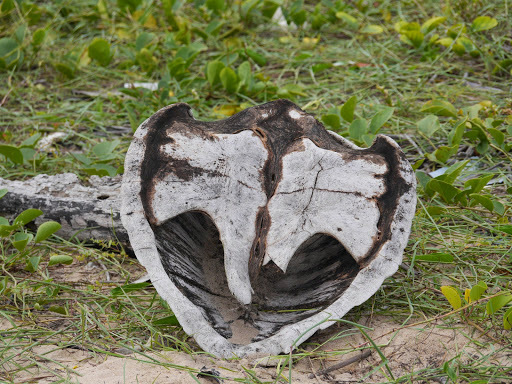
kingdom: Animalia
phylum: Chordata
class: Testudines
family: Cheloniidae
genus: Lepidochelys
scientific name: Lepidochelys olivacea
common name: Olive ridley
